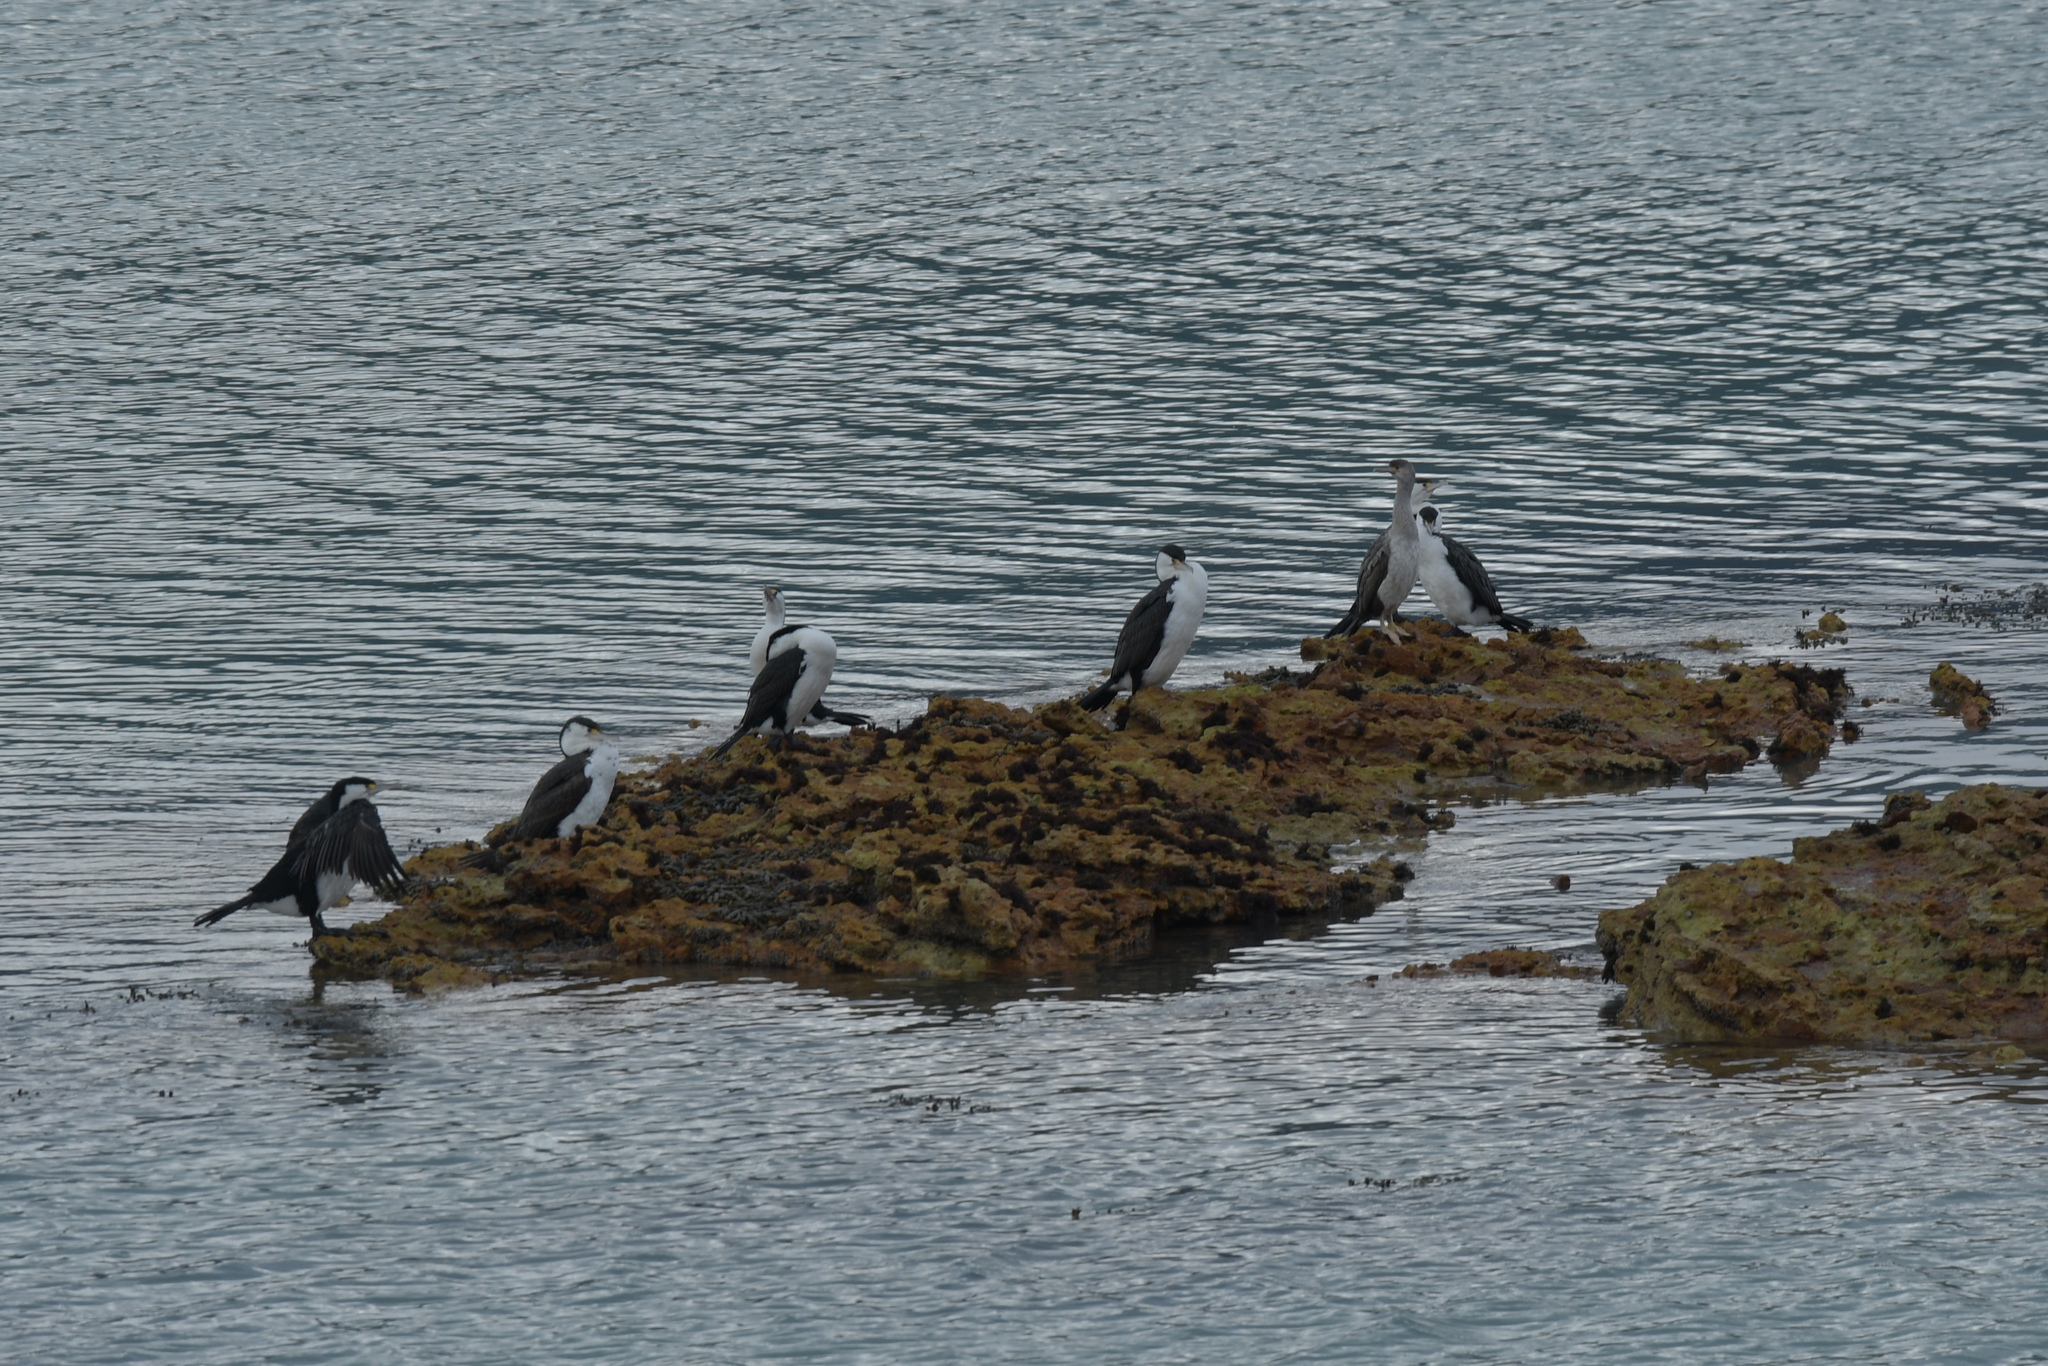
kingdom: Animalia
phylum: Chordata
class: Aves
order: Suliformes
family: Phalacrocoracidae
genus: Phalacrocorax
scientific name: Phalacrocorax varius
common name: Pied cormorant
